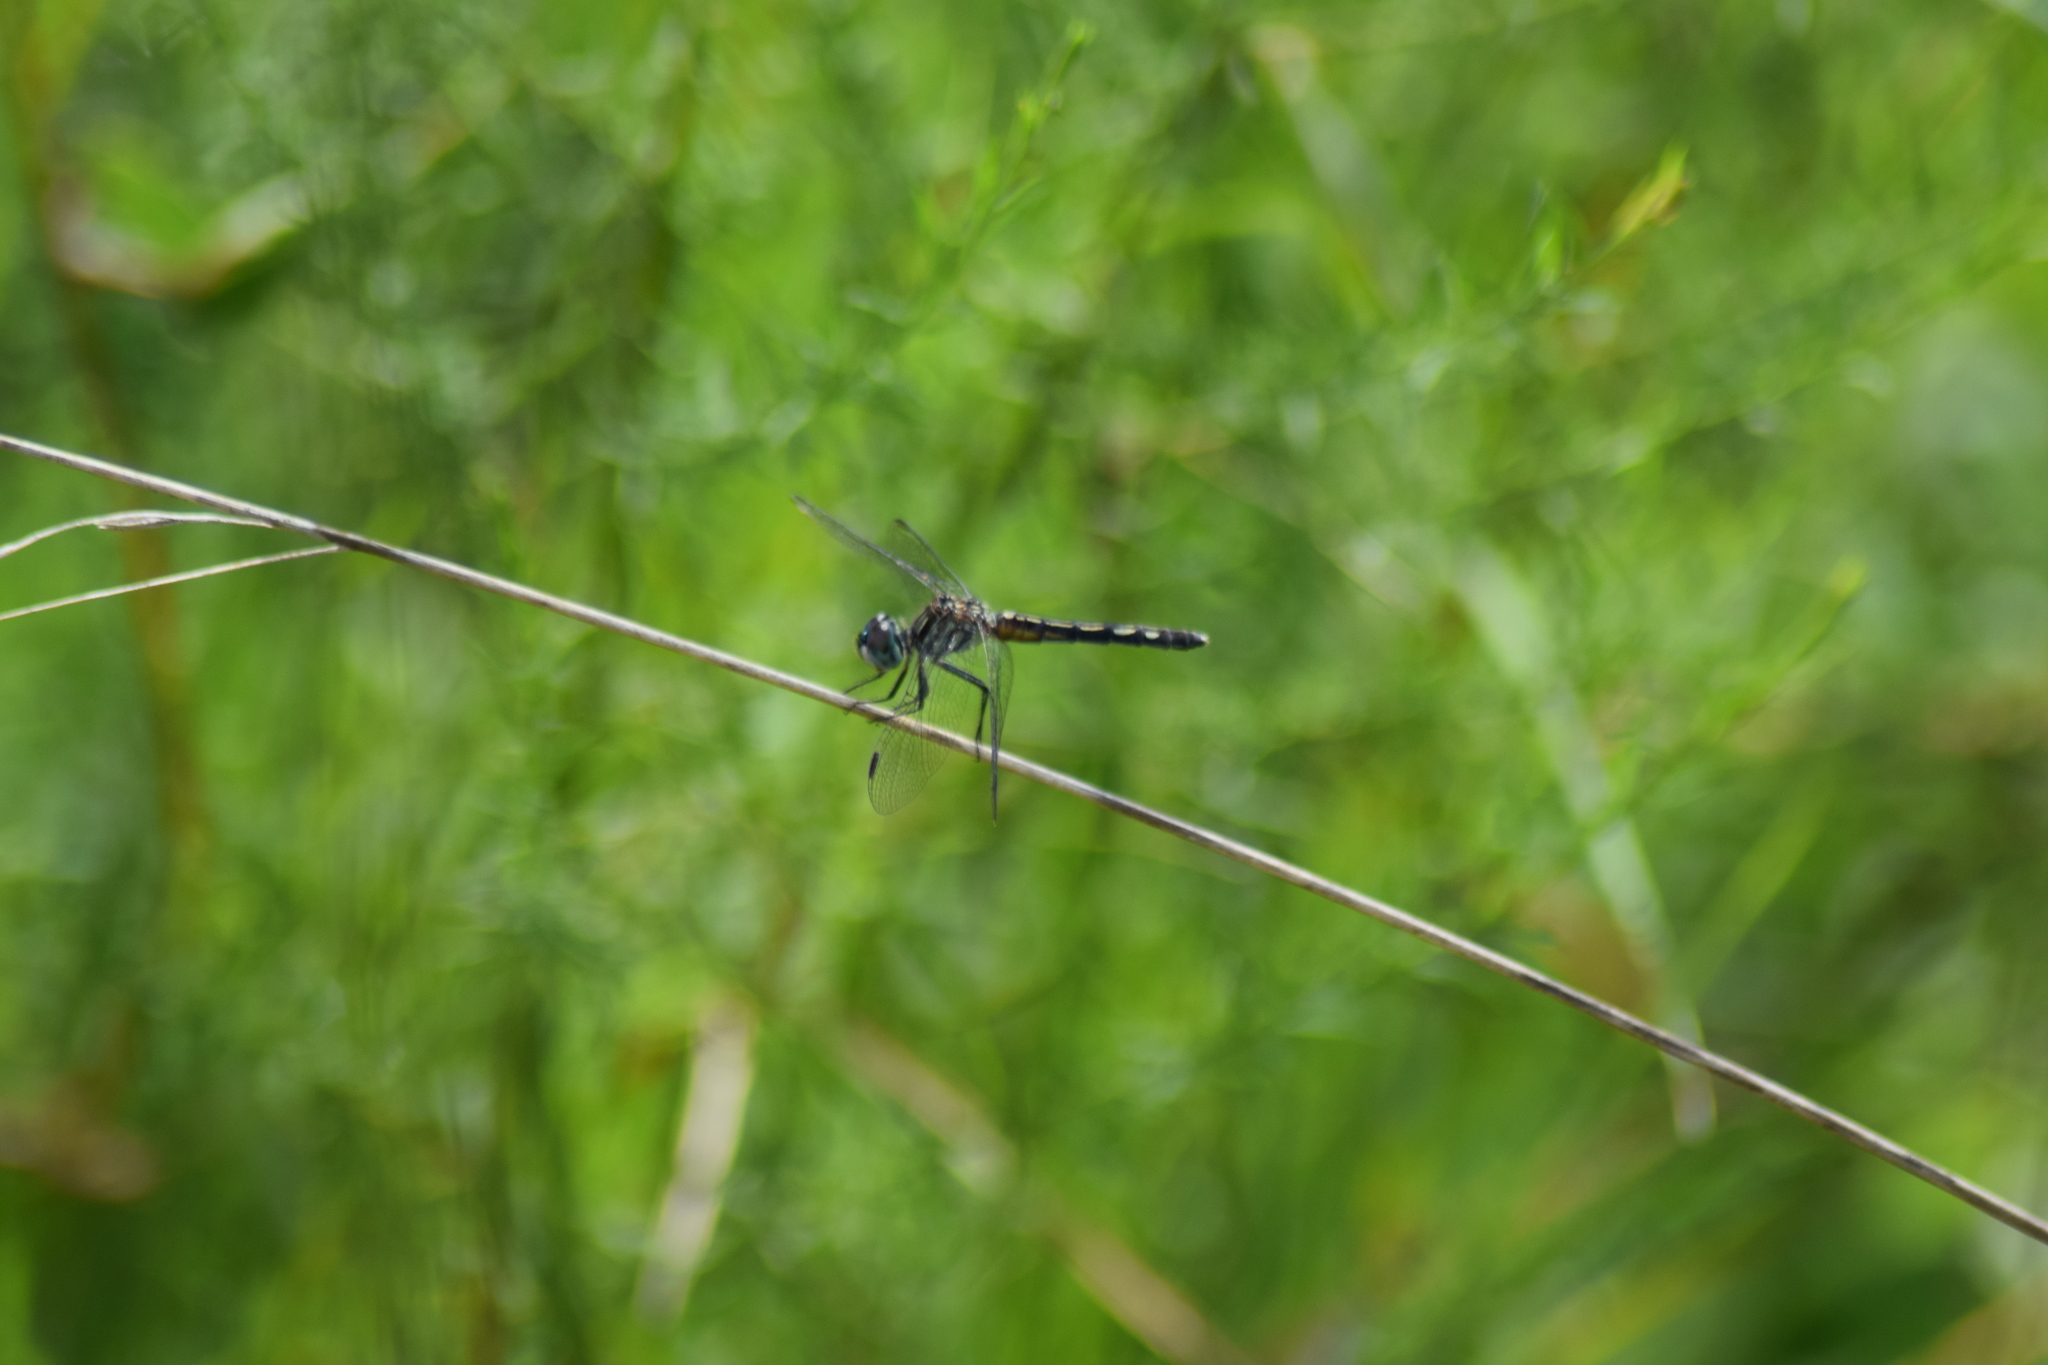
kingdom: Animalia
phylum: Arthropoda
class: Insecta
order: Odonata
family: Libellulidae
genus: Pachydiplax
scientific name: Pachydiplax longipennis
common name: Blue dasher
